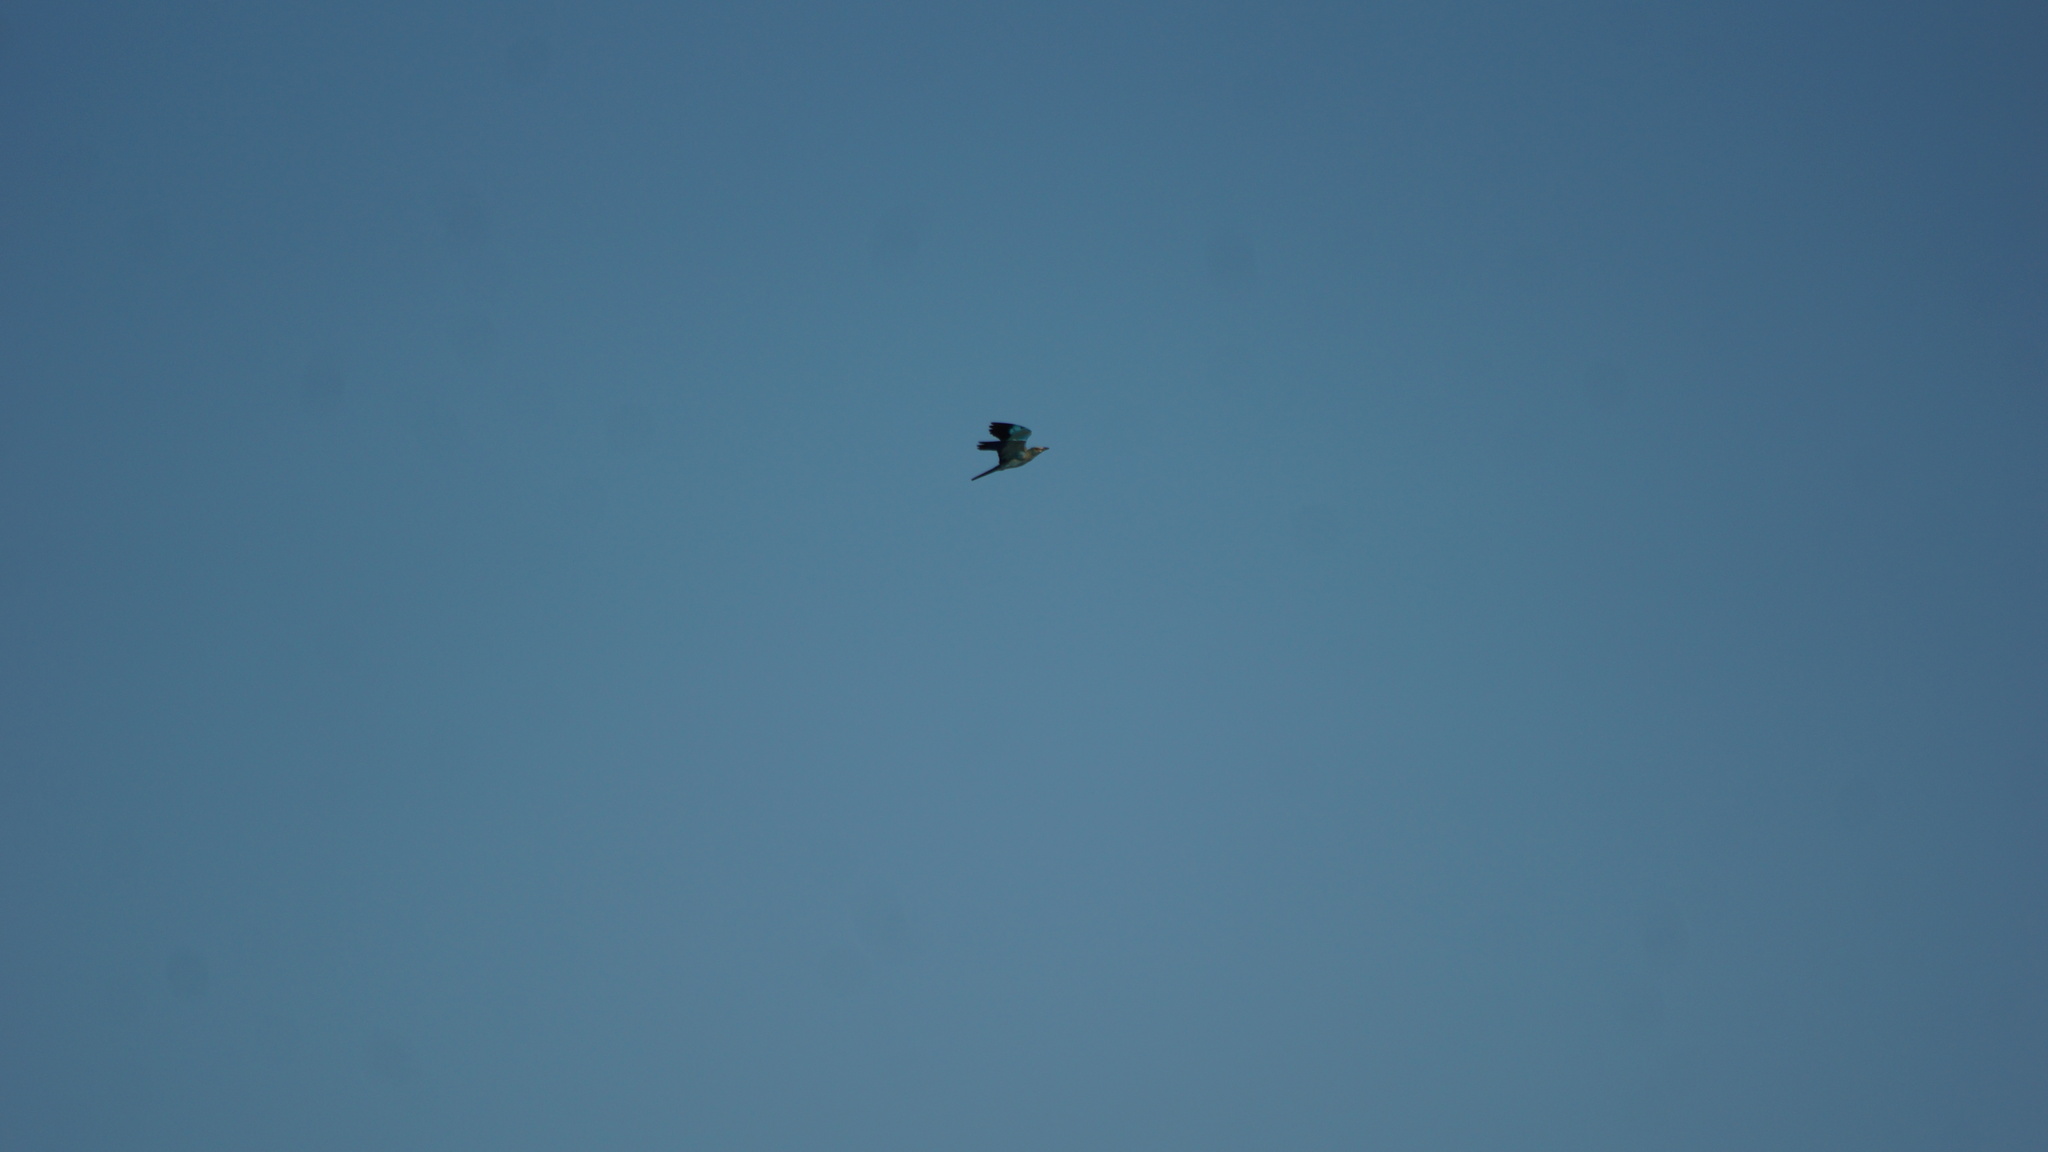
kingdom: Animalia
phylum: Chordata
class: Aves
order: Coraciiformes
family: Coraciidae
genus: Coracias
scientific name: Coracias garrulus
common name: European roller
